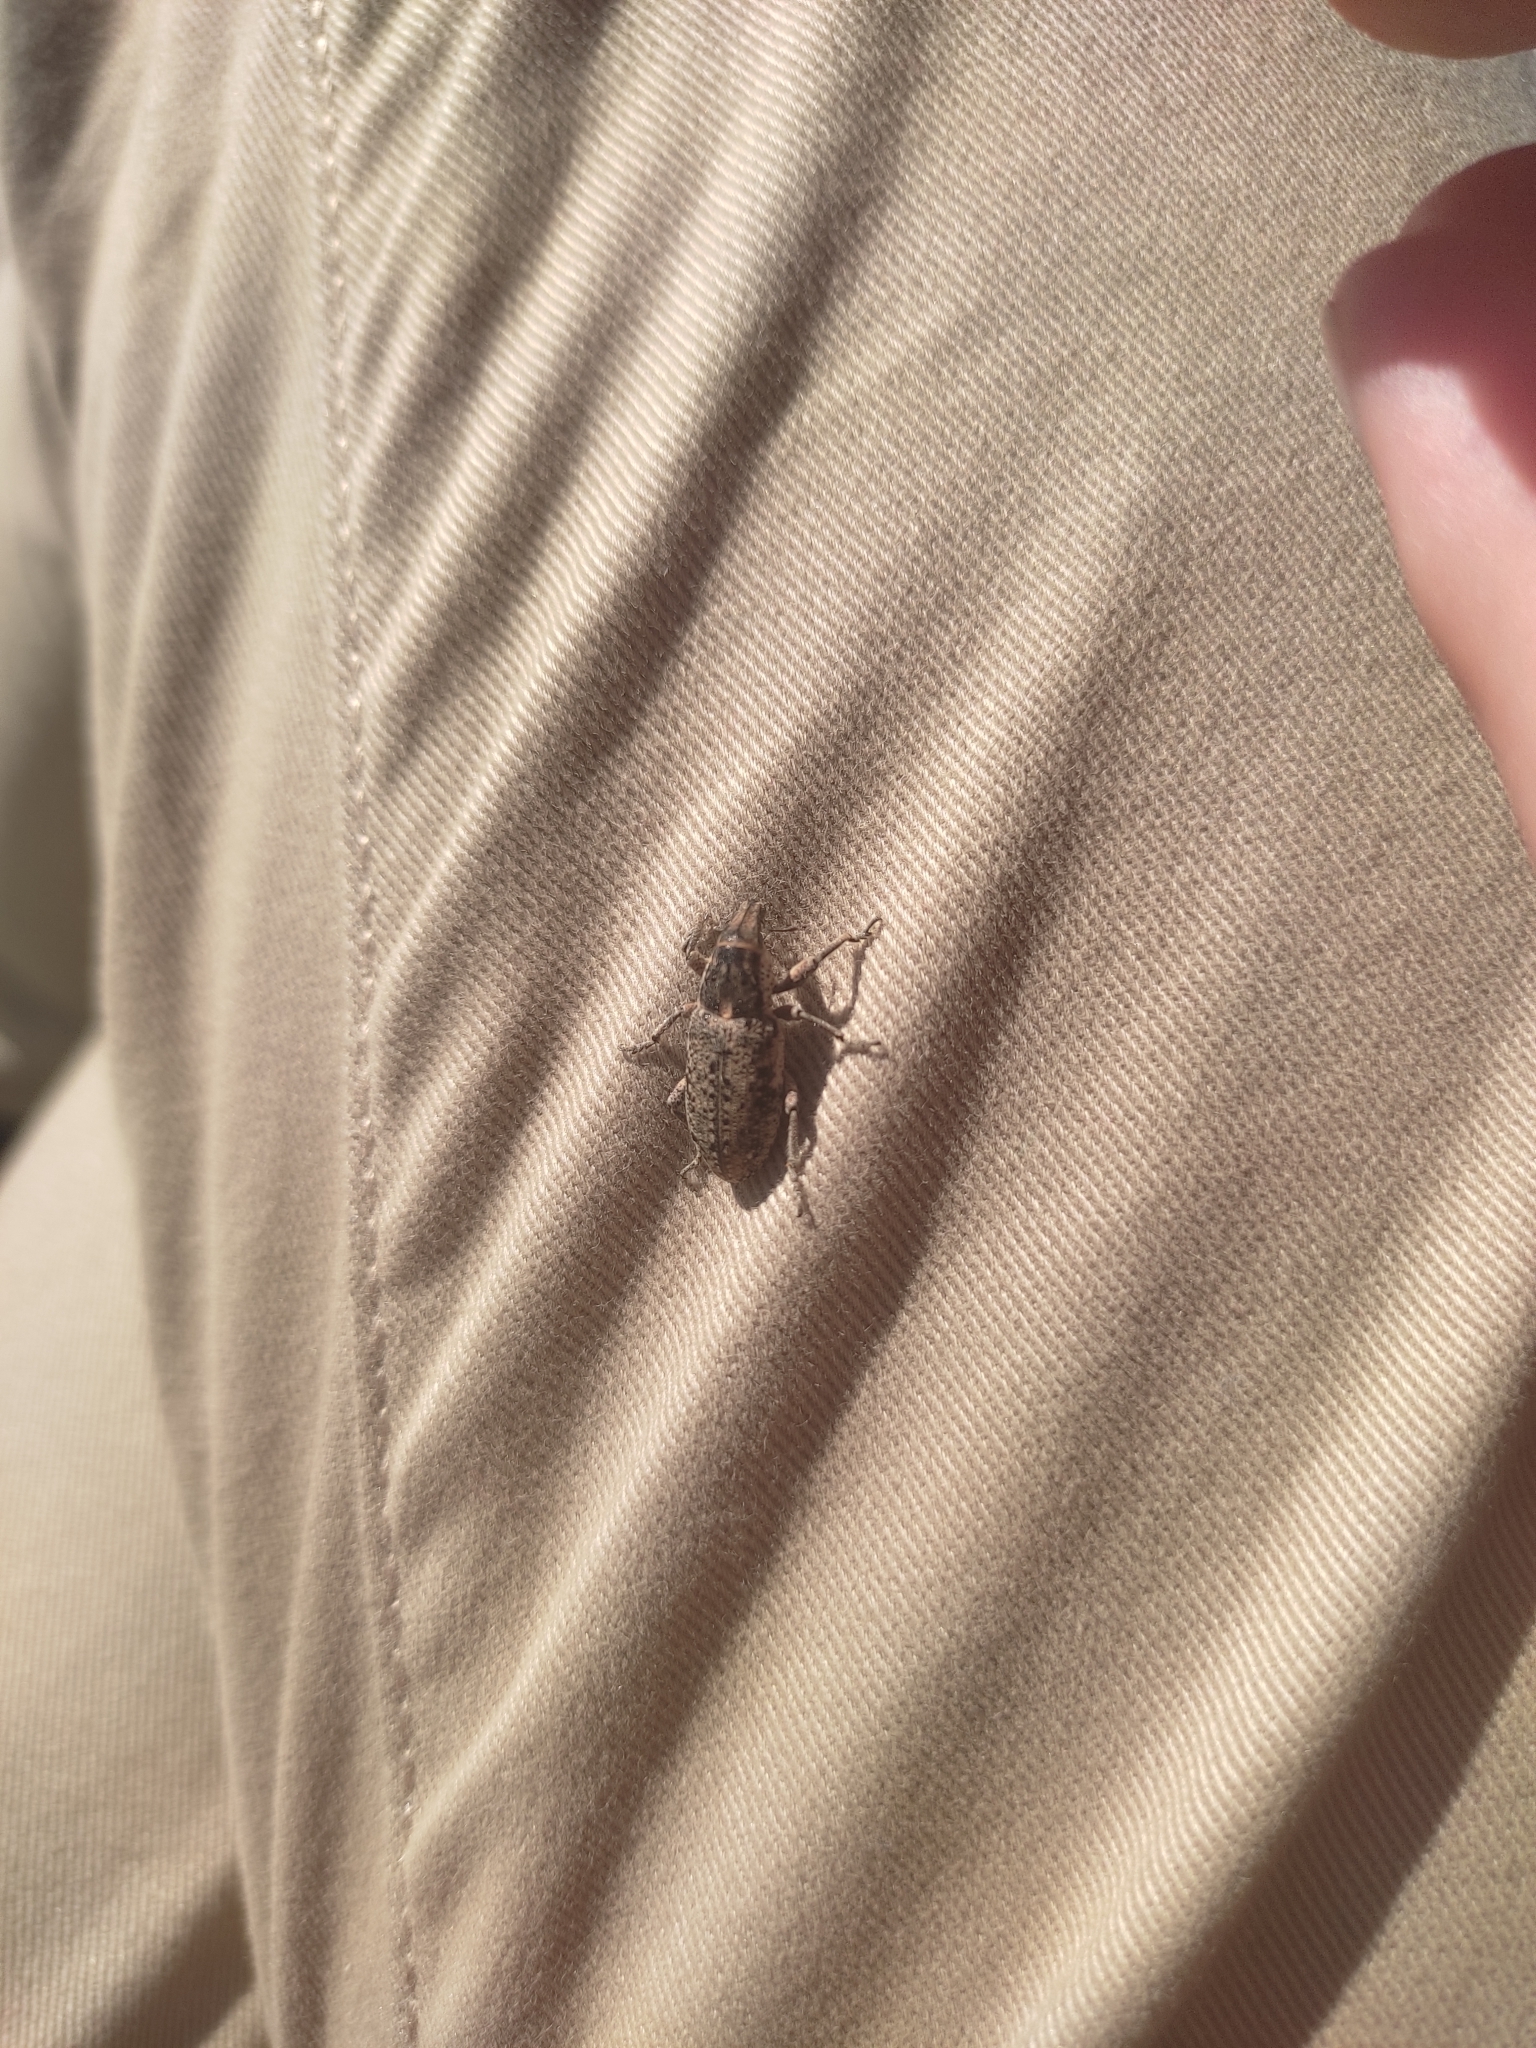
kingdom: Animalia
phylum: Arthropoda
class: Insecta
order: Coleoptera
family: Curculionidae
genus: Maximus
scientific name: Maximus strabus
